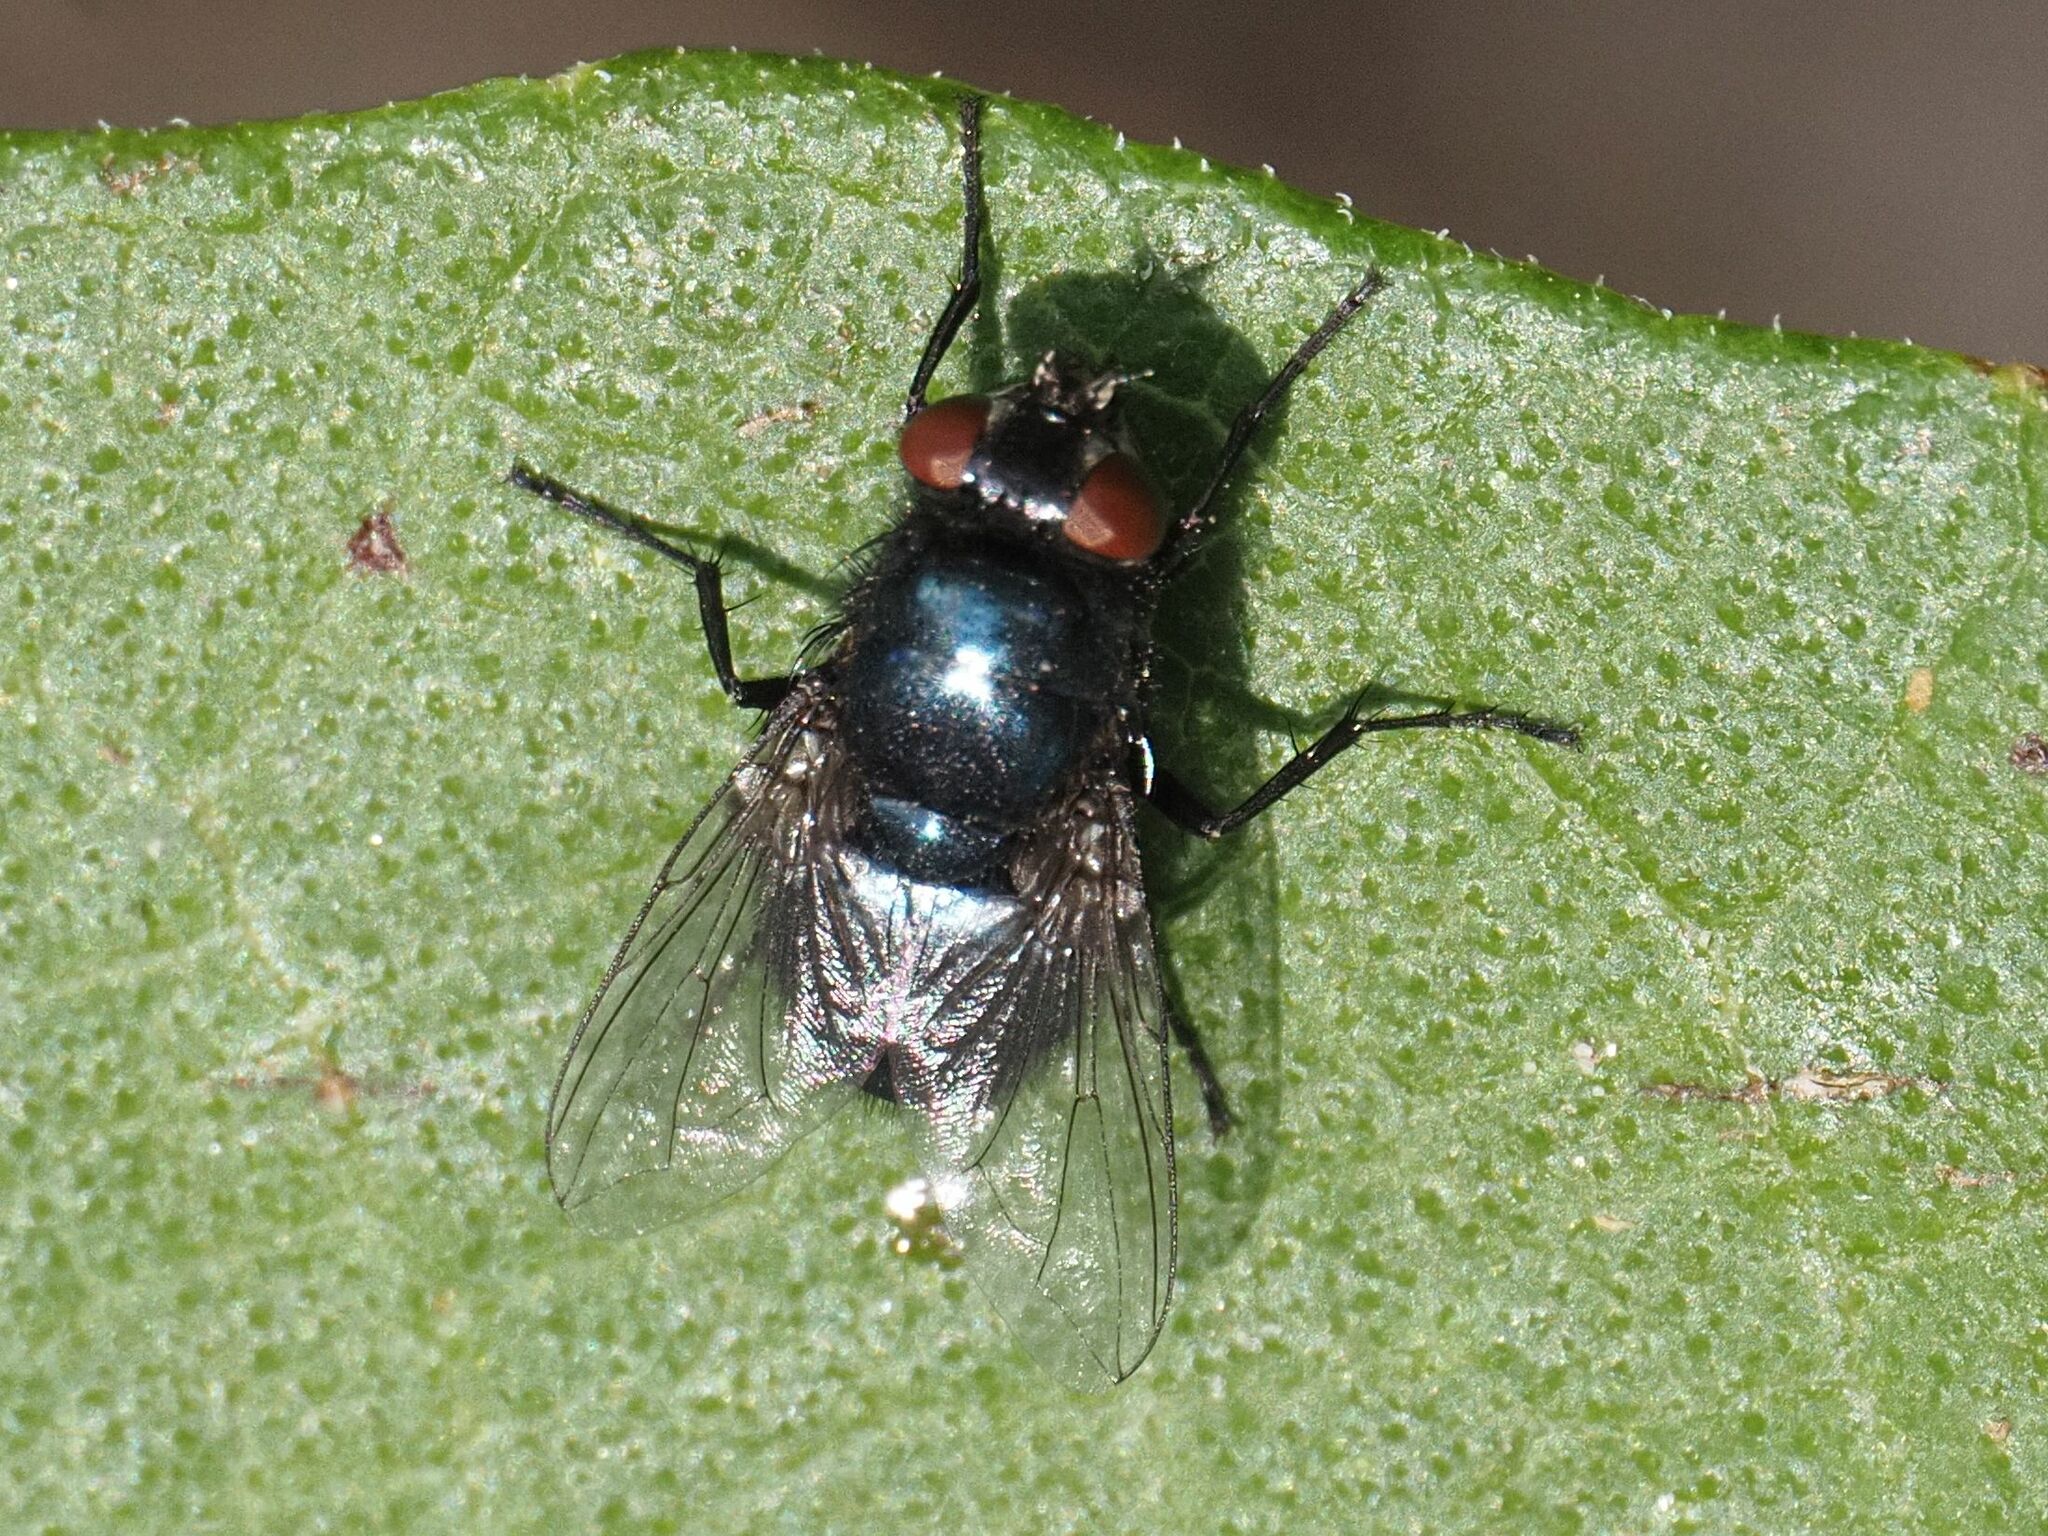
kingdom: Animalia
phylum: Arthropoda
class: Insecta
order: Diptera
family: Calliphoridae
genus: Protophormia
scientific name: Protophormia terraenovae
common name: Blackbottle
